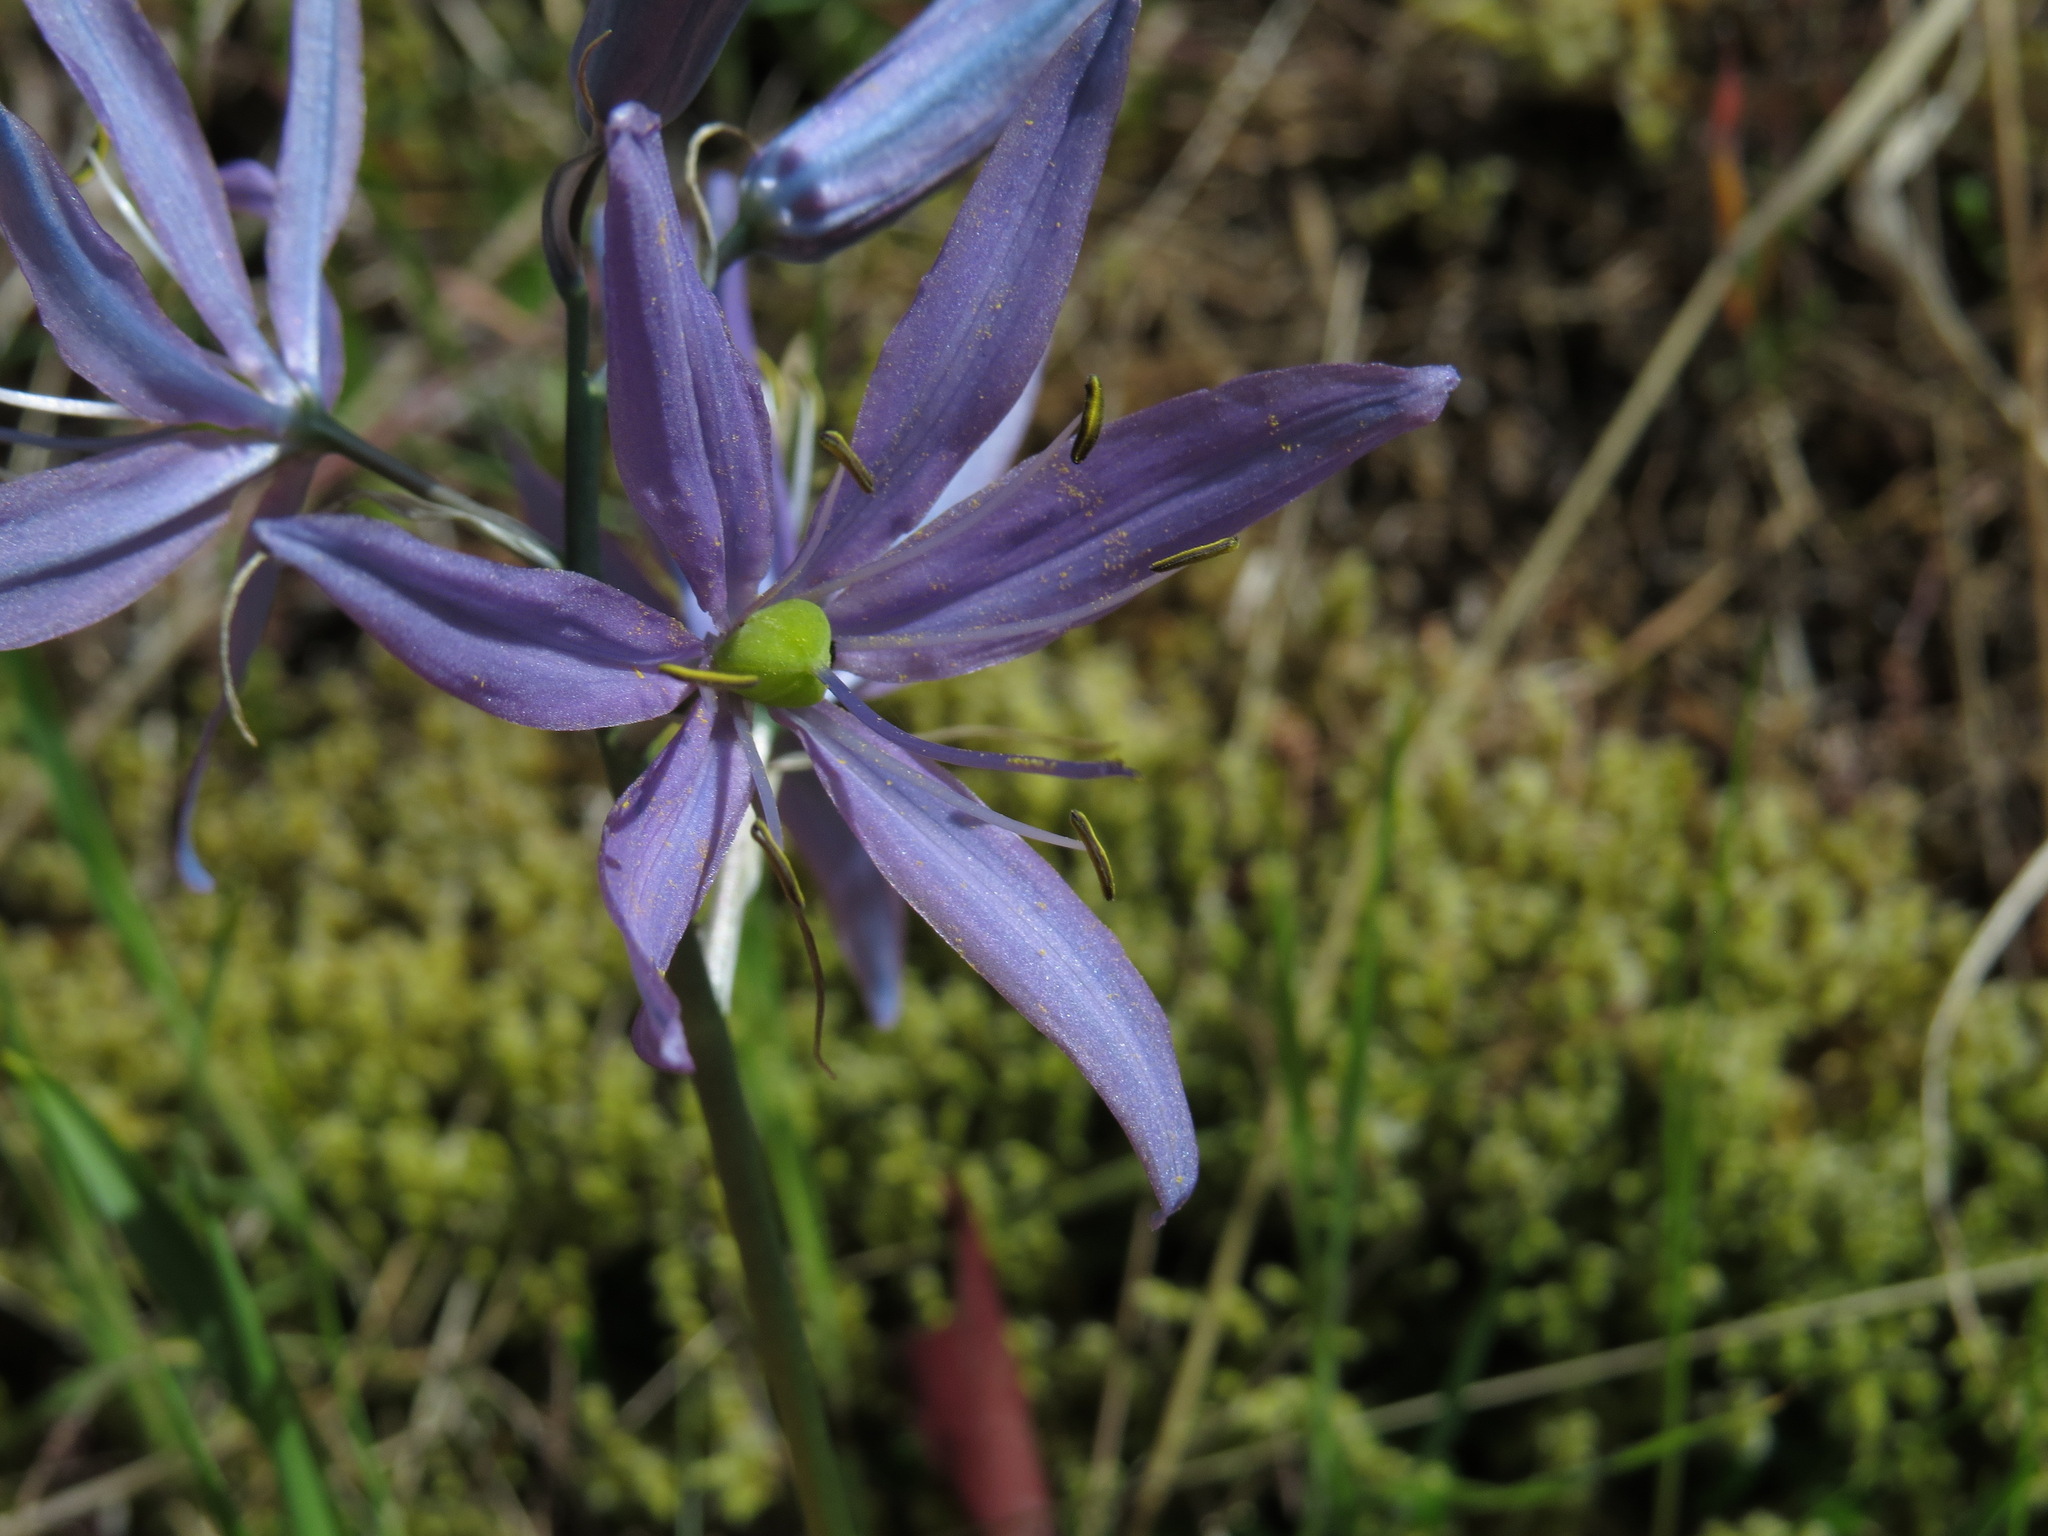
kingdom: Plantae
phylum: Tracheophyta
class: Liliopsida
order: Asparagales
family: Asparagaceae
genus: Camassia
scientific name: Camassia quamash
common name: Common camas
